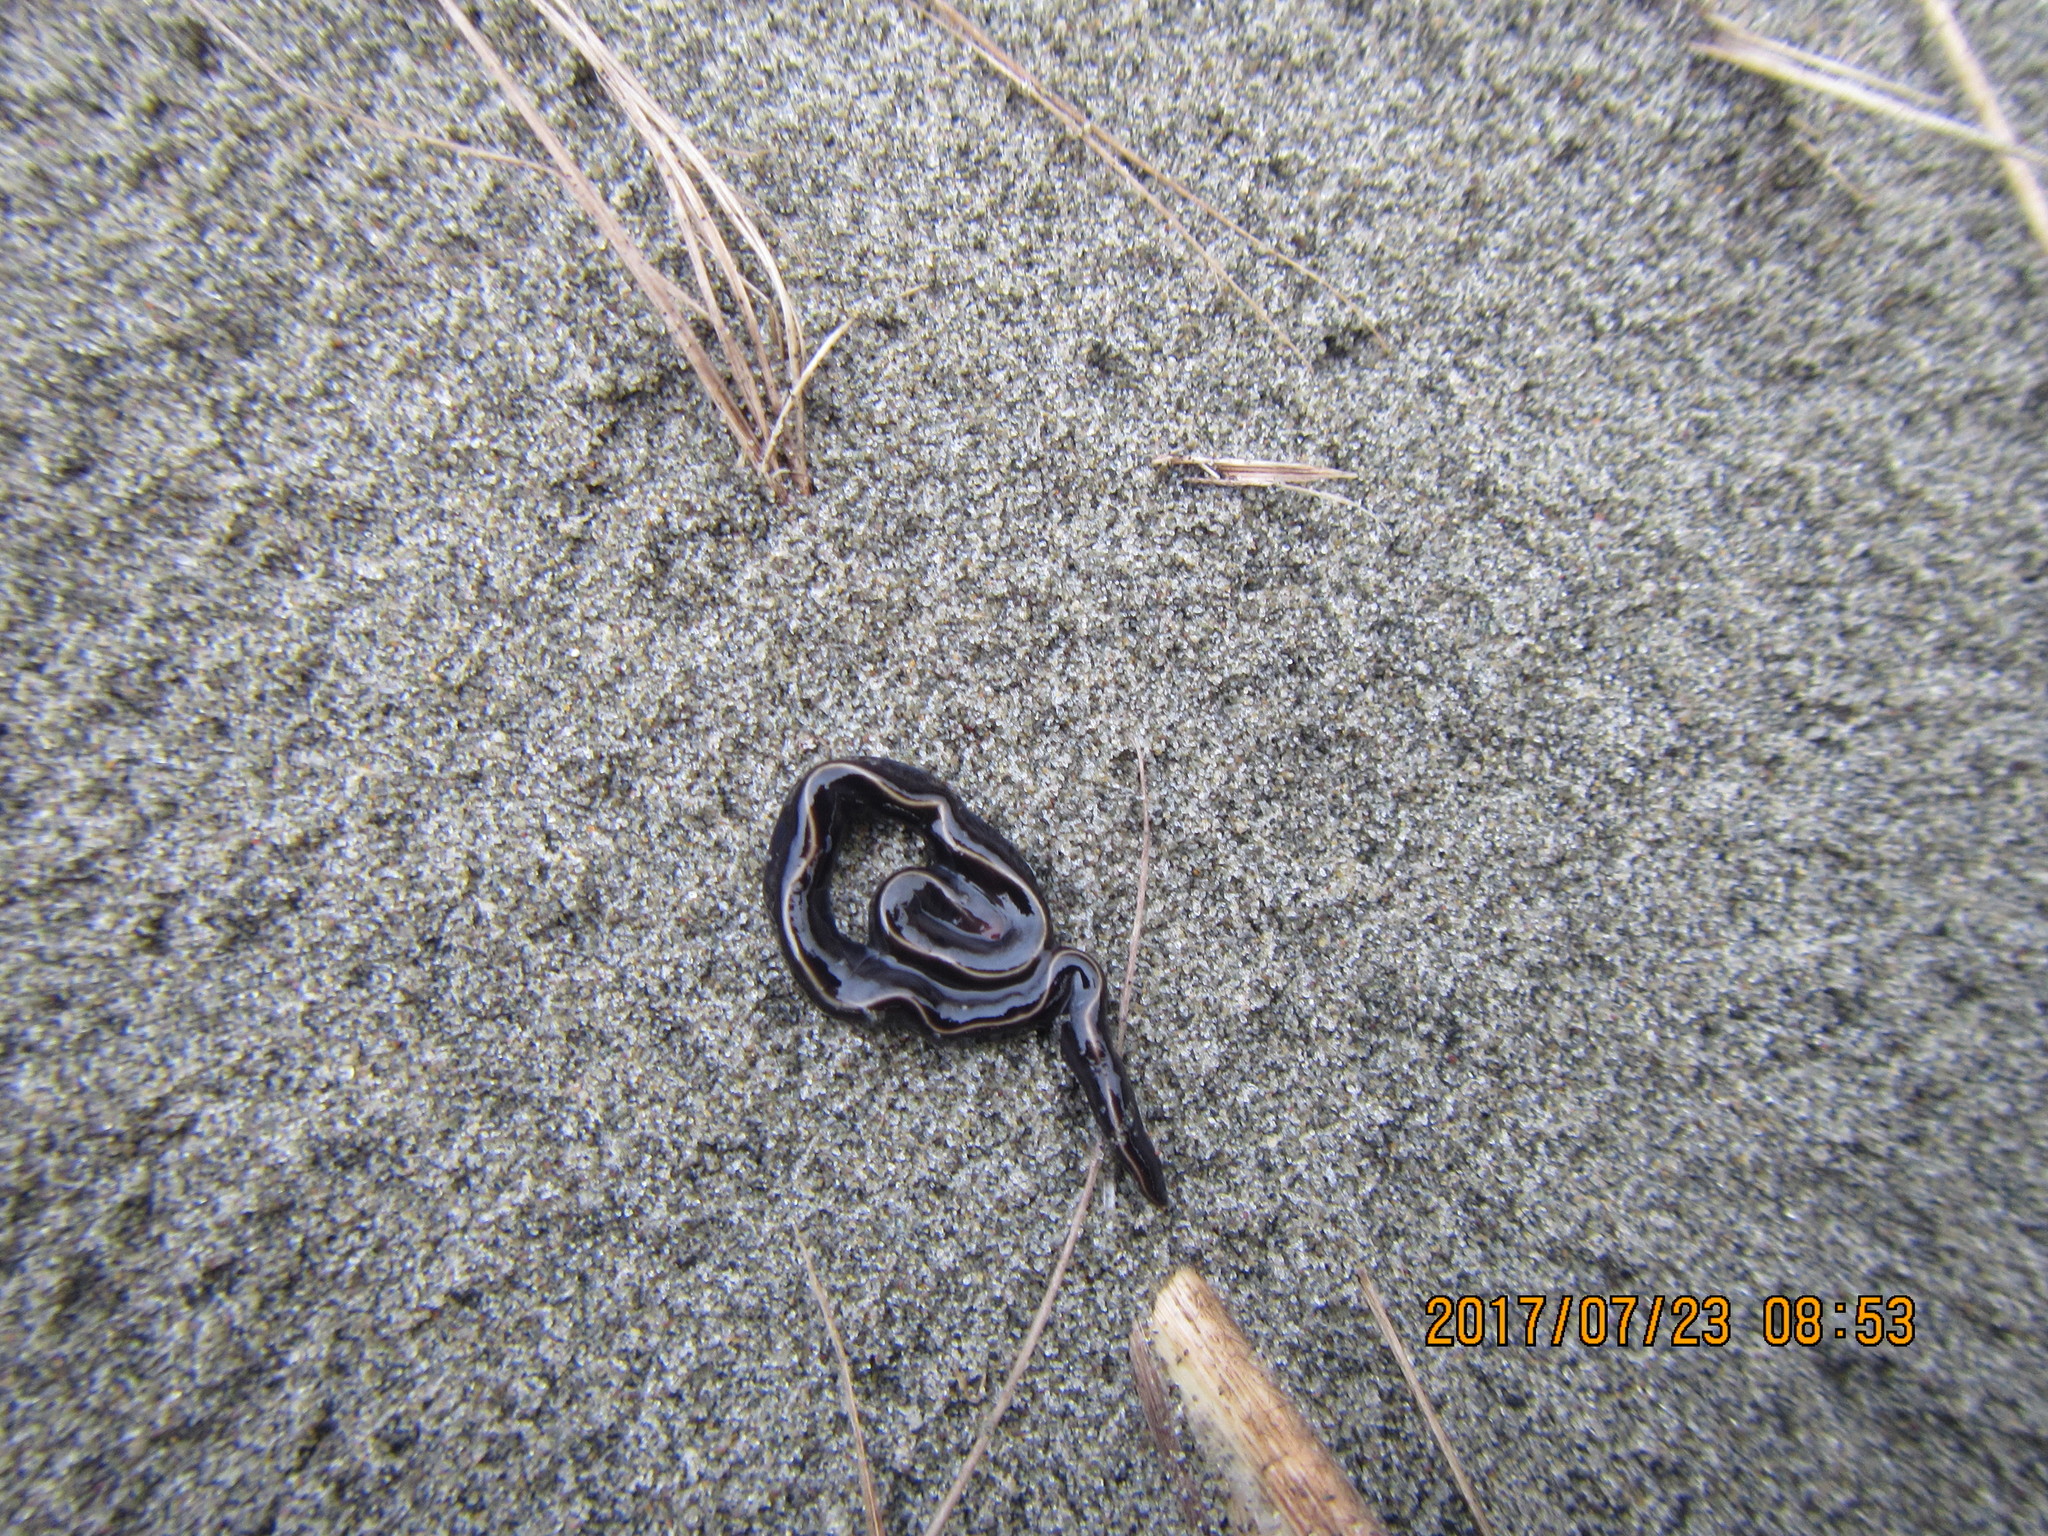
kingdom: Animalia
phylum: Platyhelminthes
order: Tricladida
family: Geoplanidae
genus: Caenoplana
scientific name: Caenoplana coerulea
